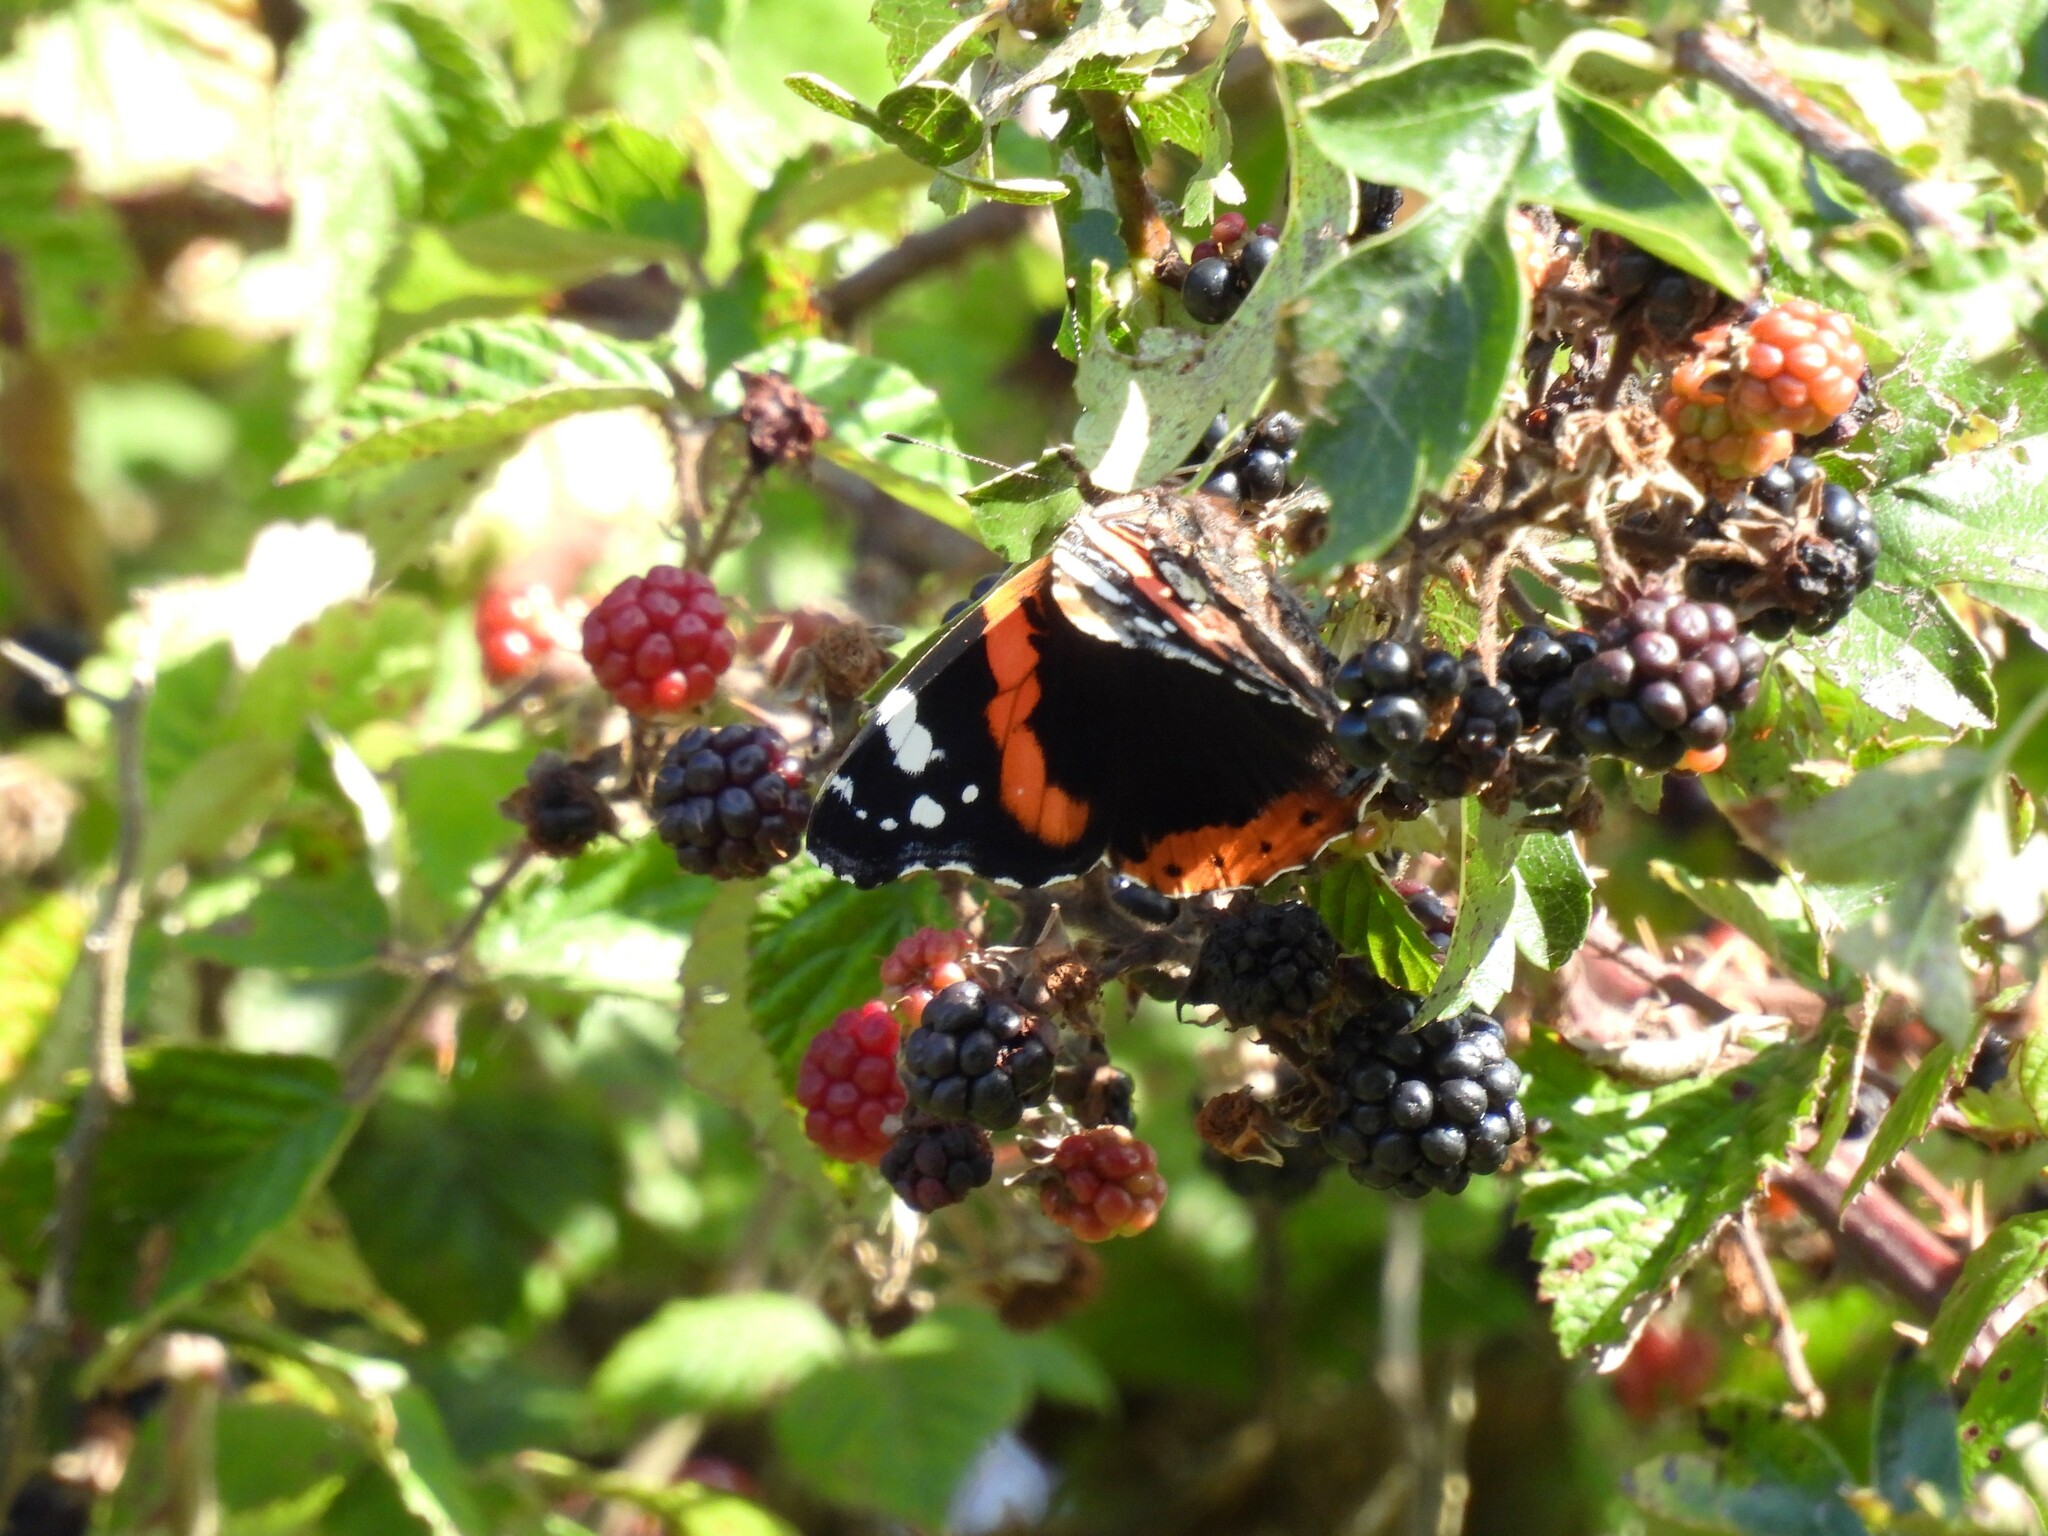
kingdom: Animalia
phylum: Arthropoda
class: Insecta
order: Lepidoptera
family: Nymphalidae
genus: Vanessa
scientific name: Vanessa atalanta
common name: Red admiral
